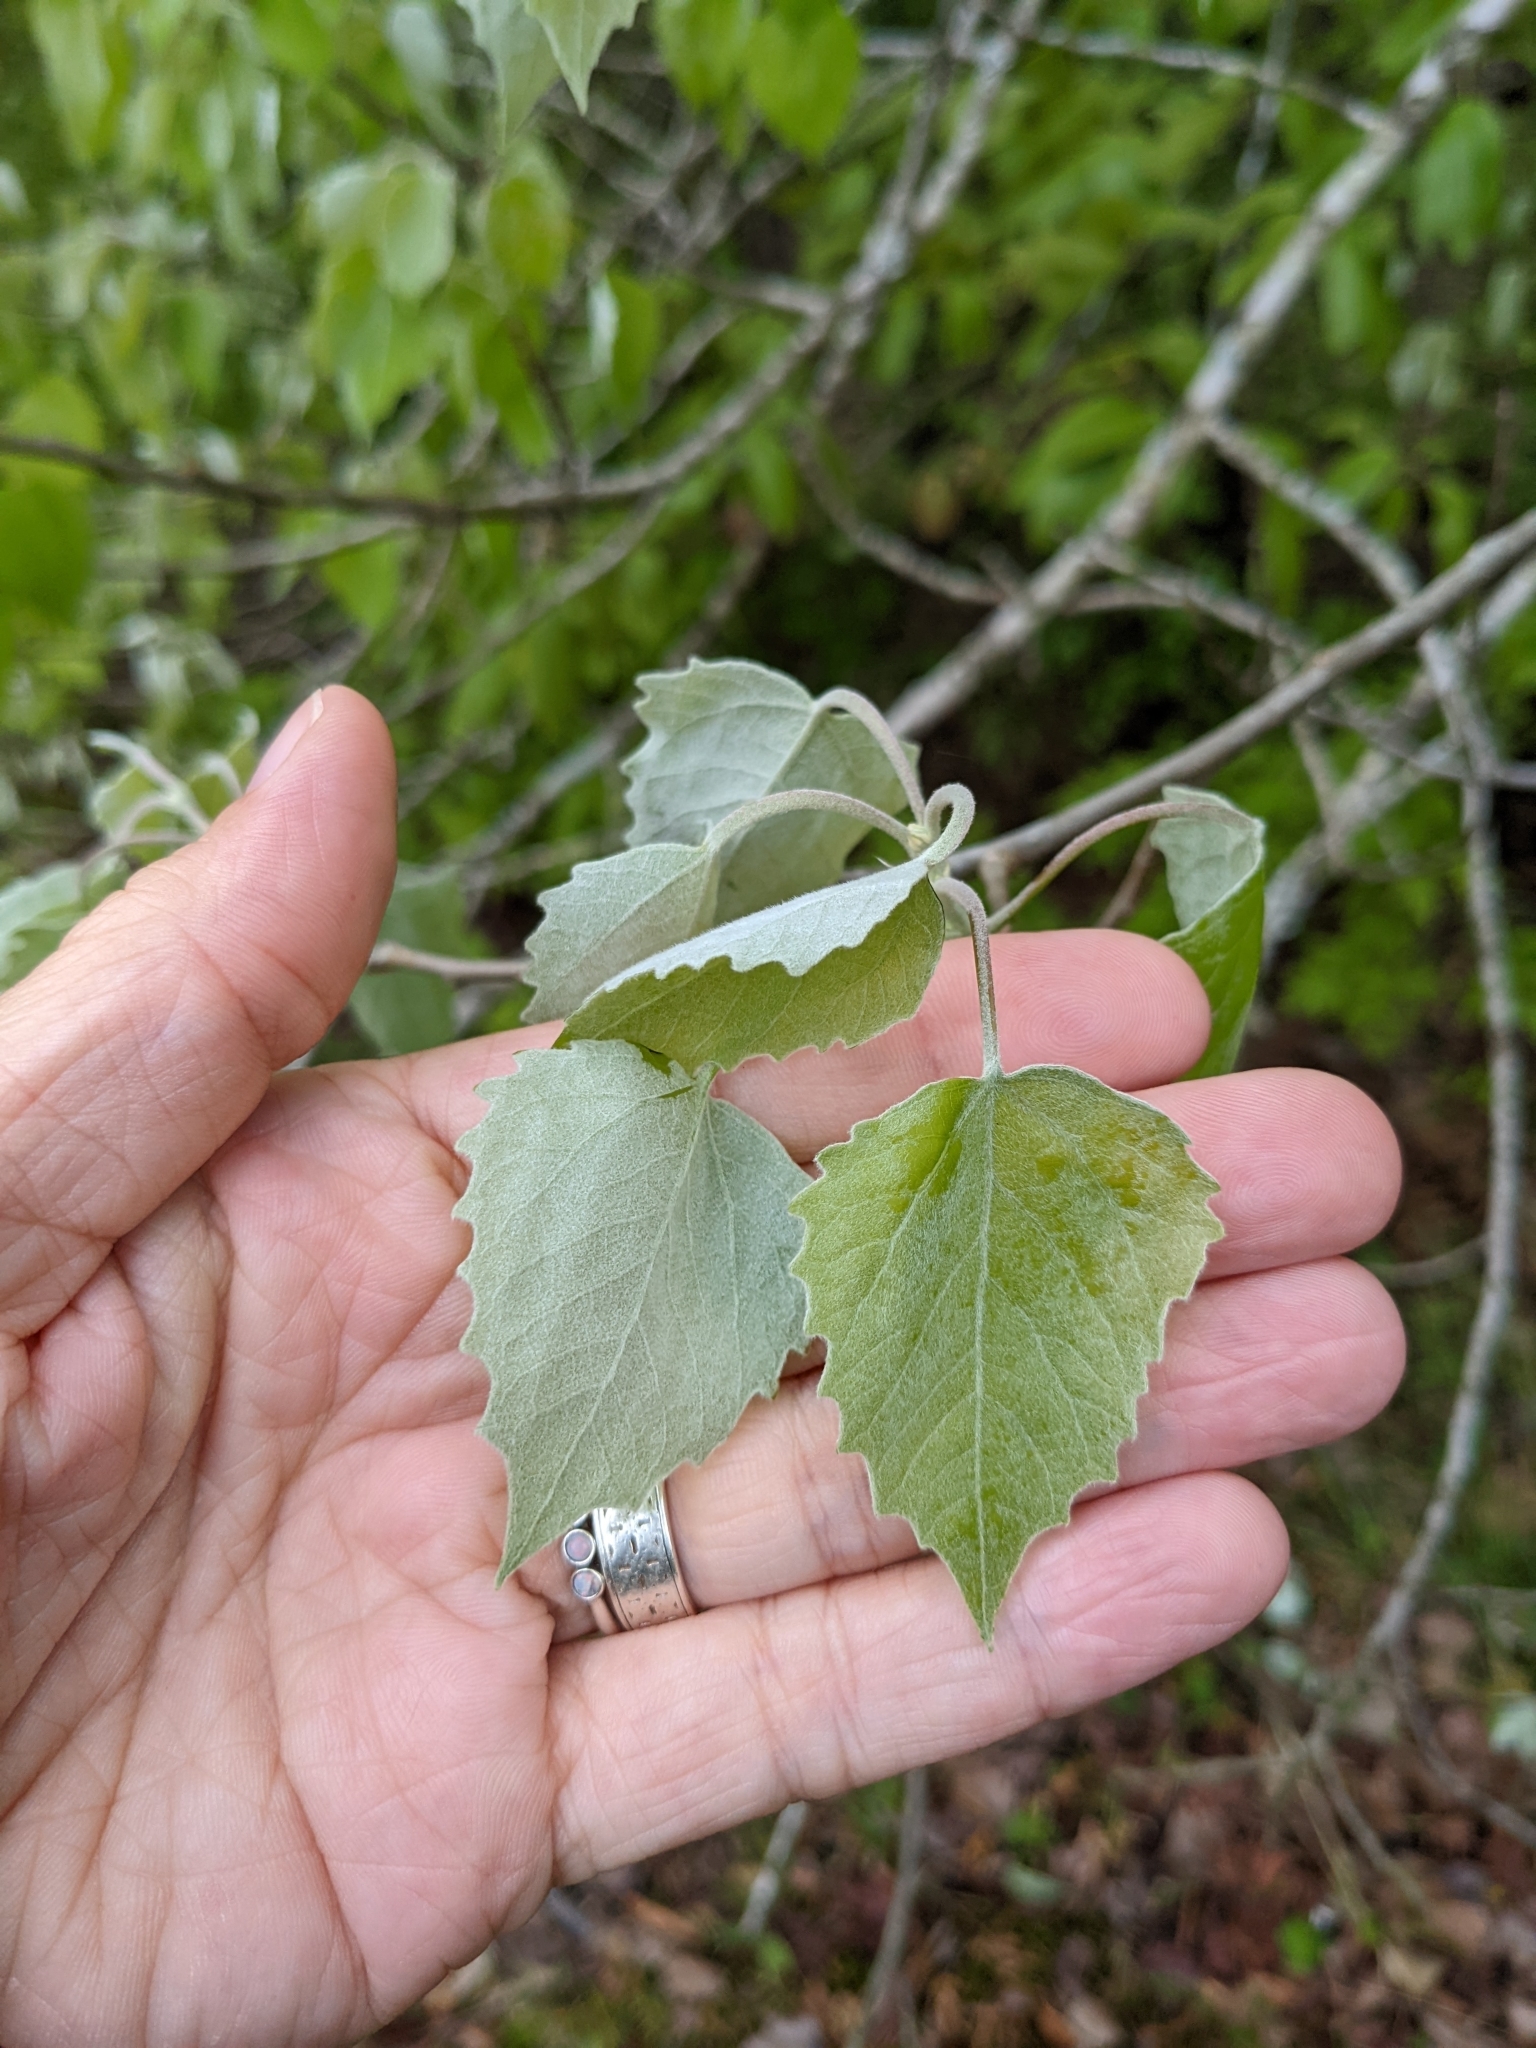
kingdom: Plantae
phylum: Tracheophyta
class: Magnoliopsida
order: Malpighiales
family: Salicaceae
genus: Populus
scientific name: Populus grandidentata
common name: Bigtooth aspen
